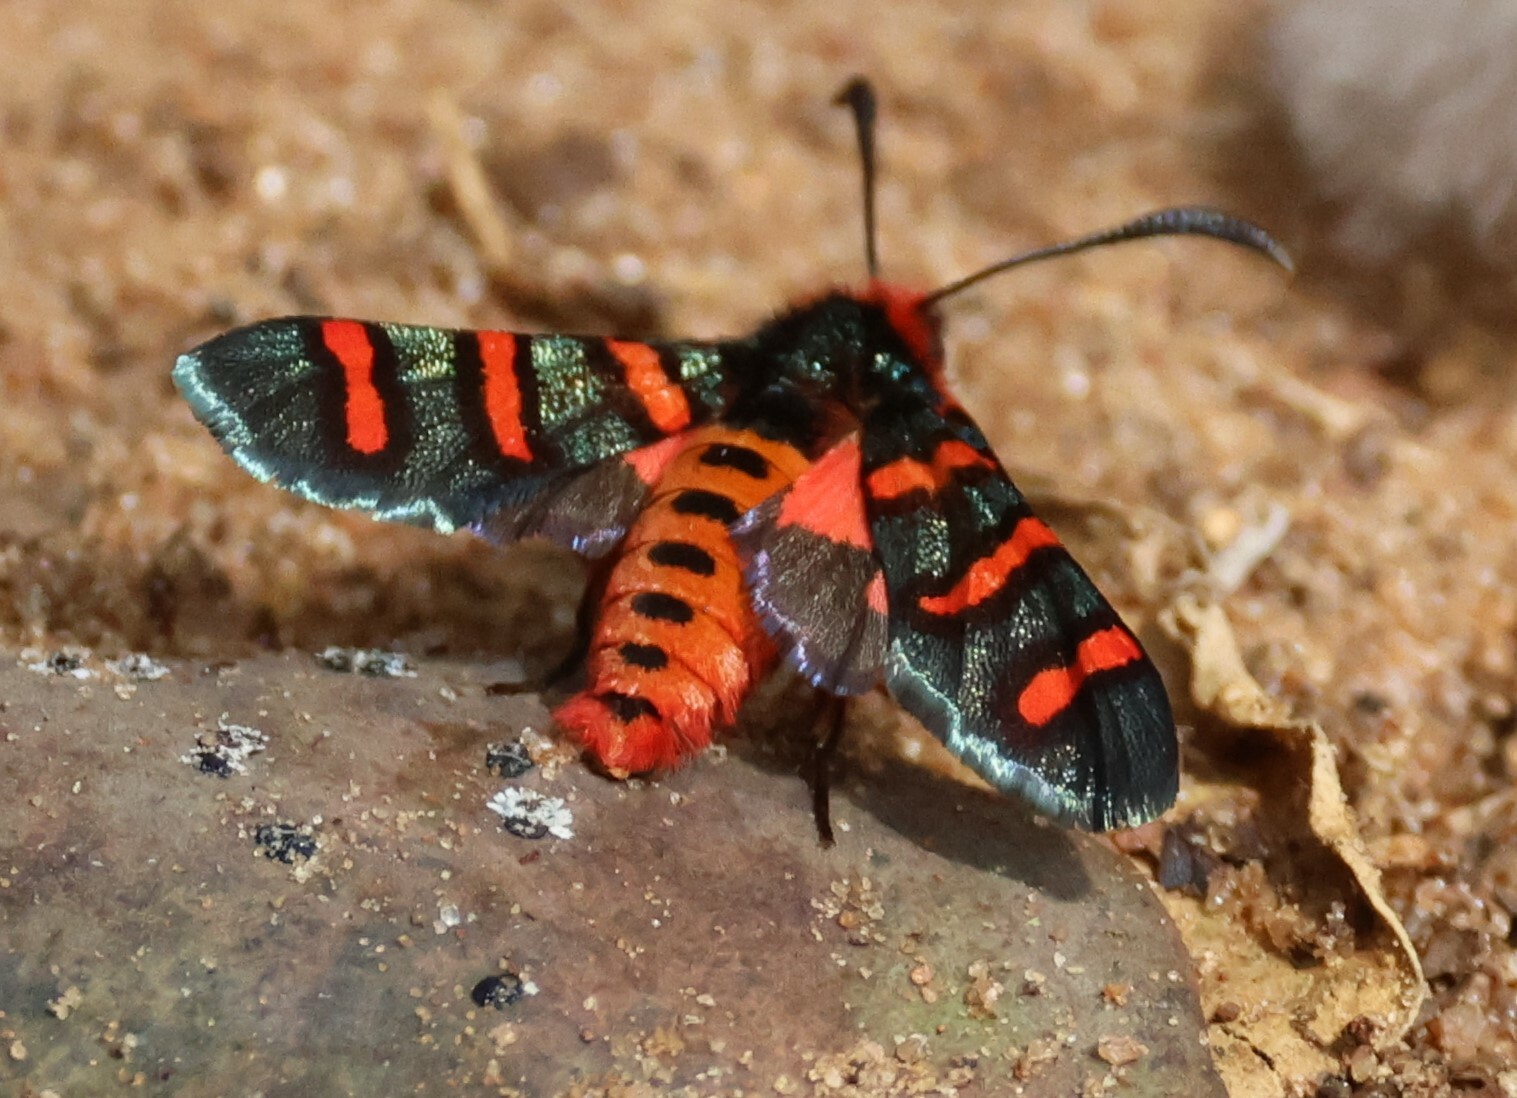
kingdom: Animalia
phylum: Arthropoda
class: Insecta
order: Lepidoptera
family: Thyrididae
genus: Arniocera
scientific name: Arniocera erythropyga
